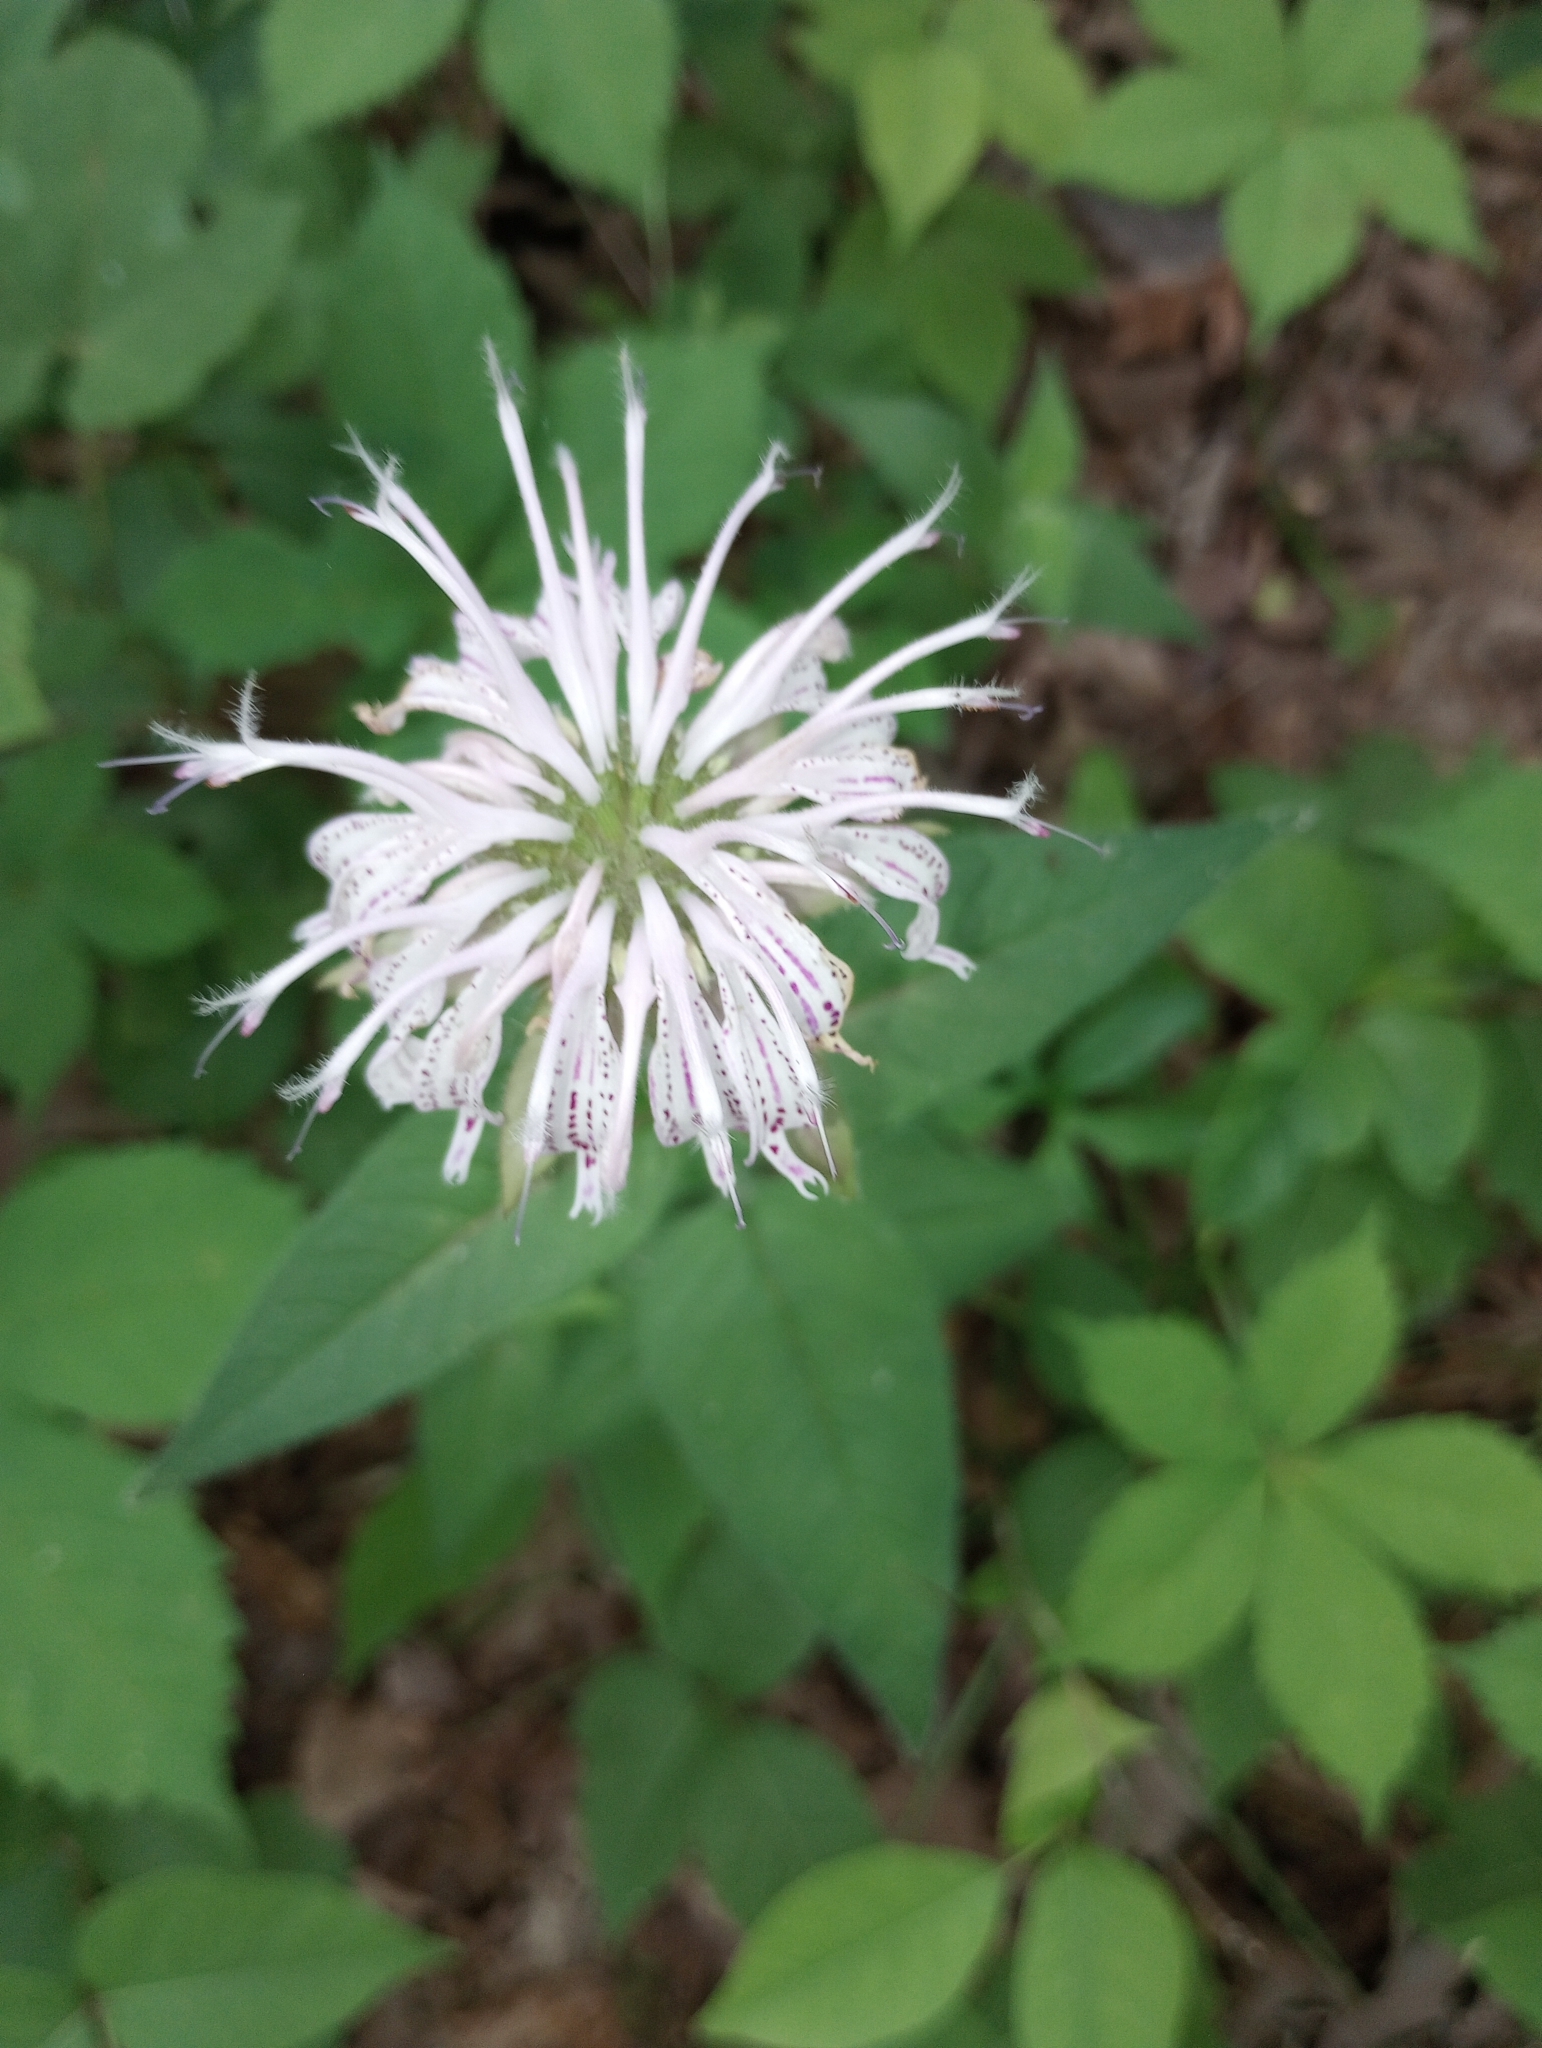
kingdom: Plantae
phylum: Tracheophyta
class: Magnoliopsida
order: Lamiales
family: Lamiaceae
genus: Monarda
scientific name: Monarda bradburiana
